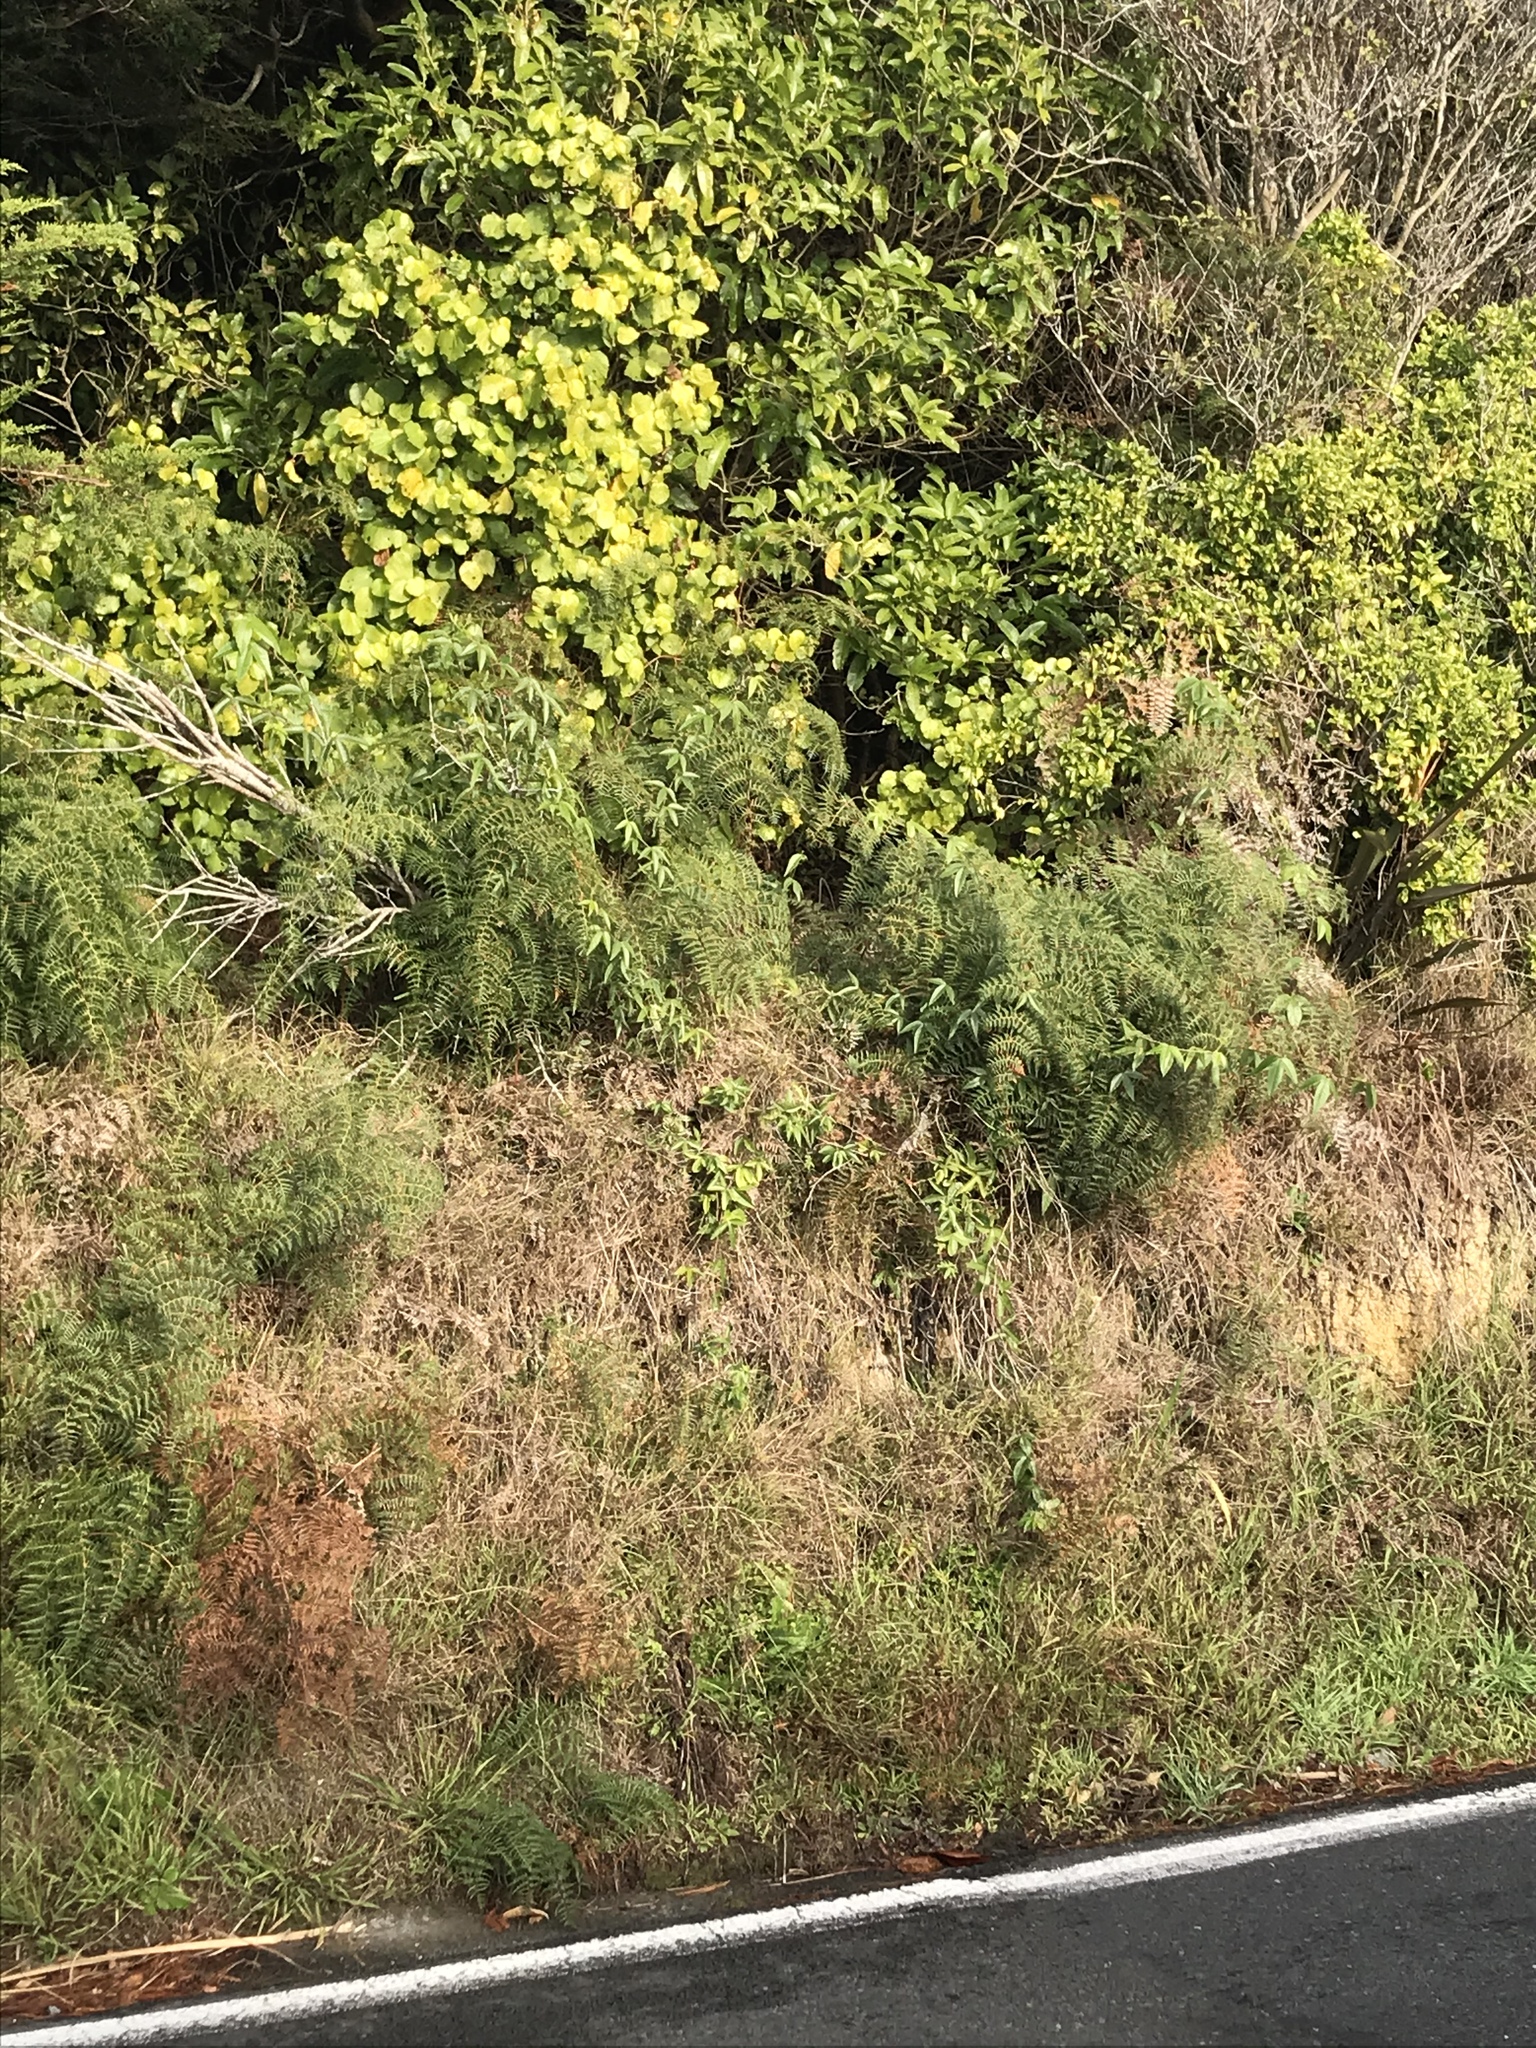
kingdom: Plantae
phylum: Tracheophyta
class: Magnoliopsida
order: Malpighiales
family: Passifloraceae
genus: Passiflora
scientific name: Passiflora tripartita
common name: Banana poka
